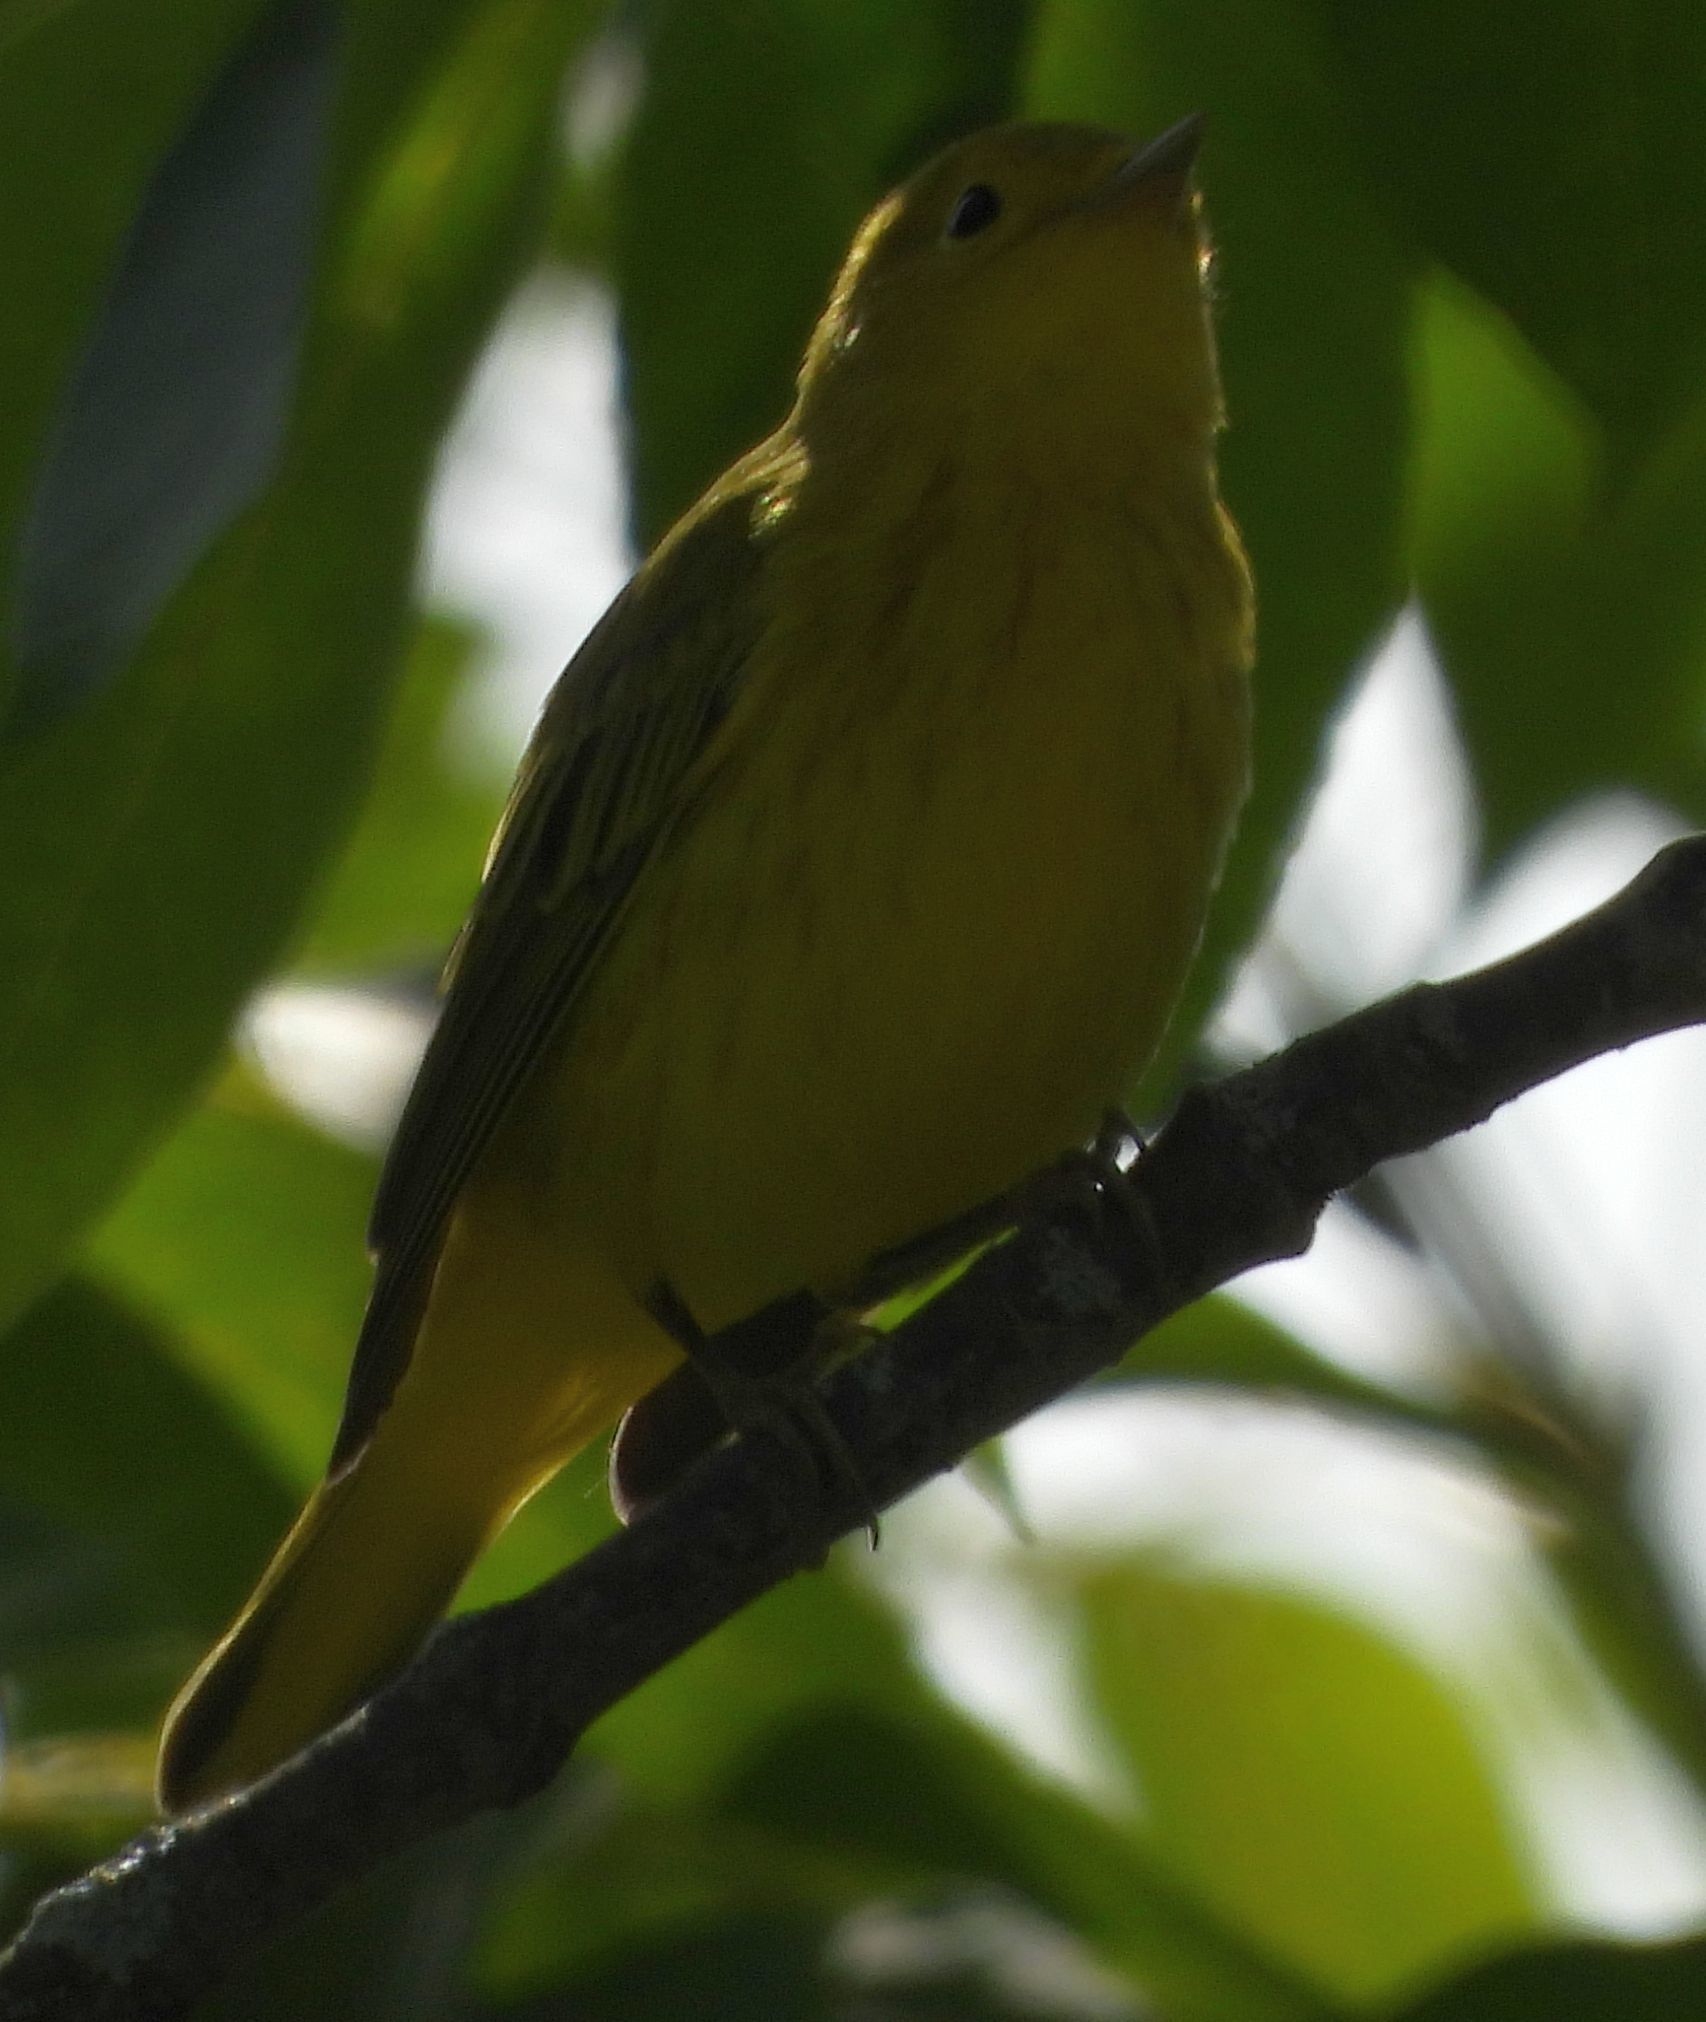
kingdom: Animalia
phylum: Chordata
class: Aves
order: Passeriformes
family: Parulidae
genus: Setophaga
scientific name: Setophaga petechia
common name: Yellow warbler
